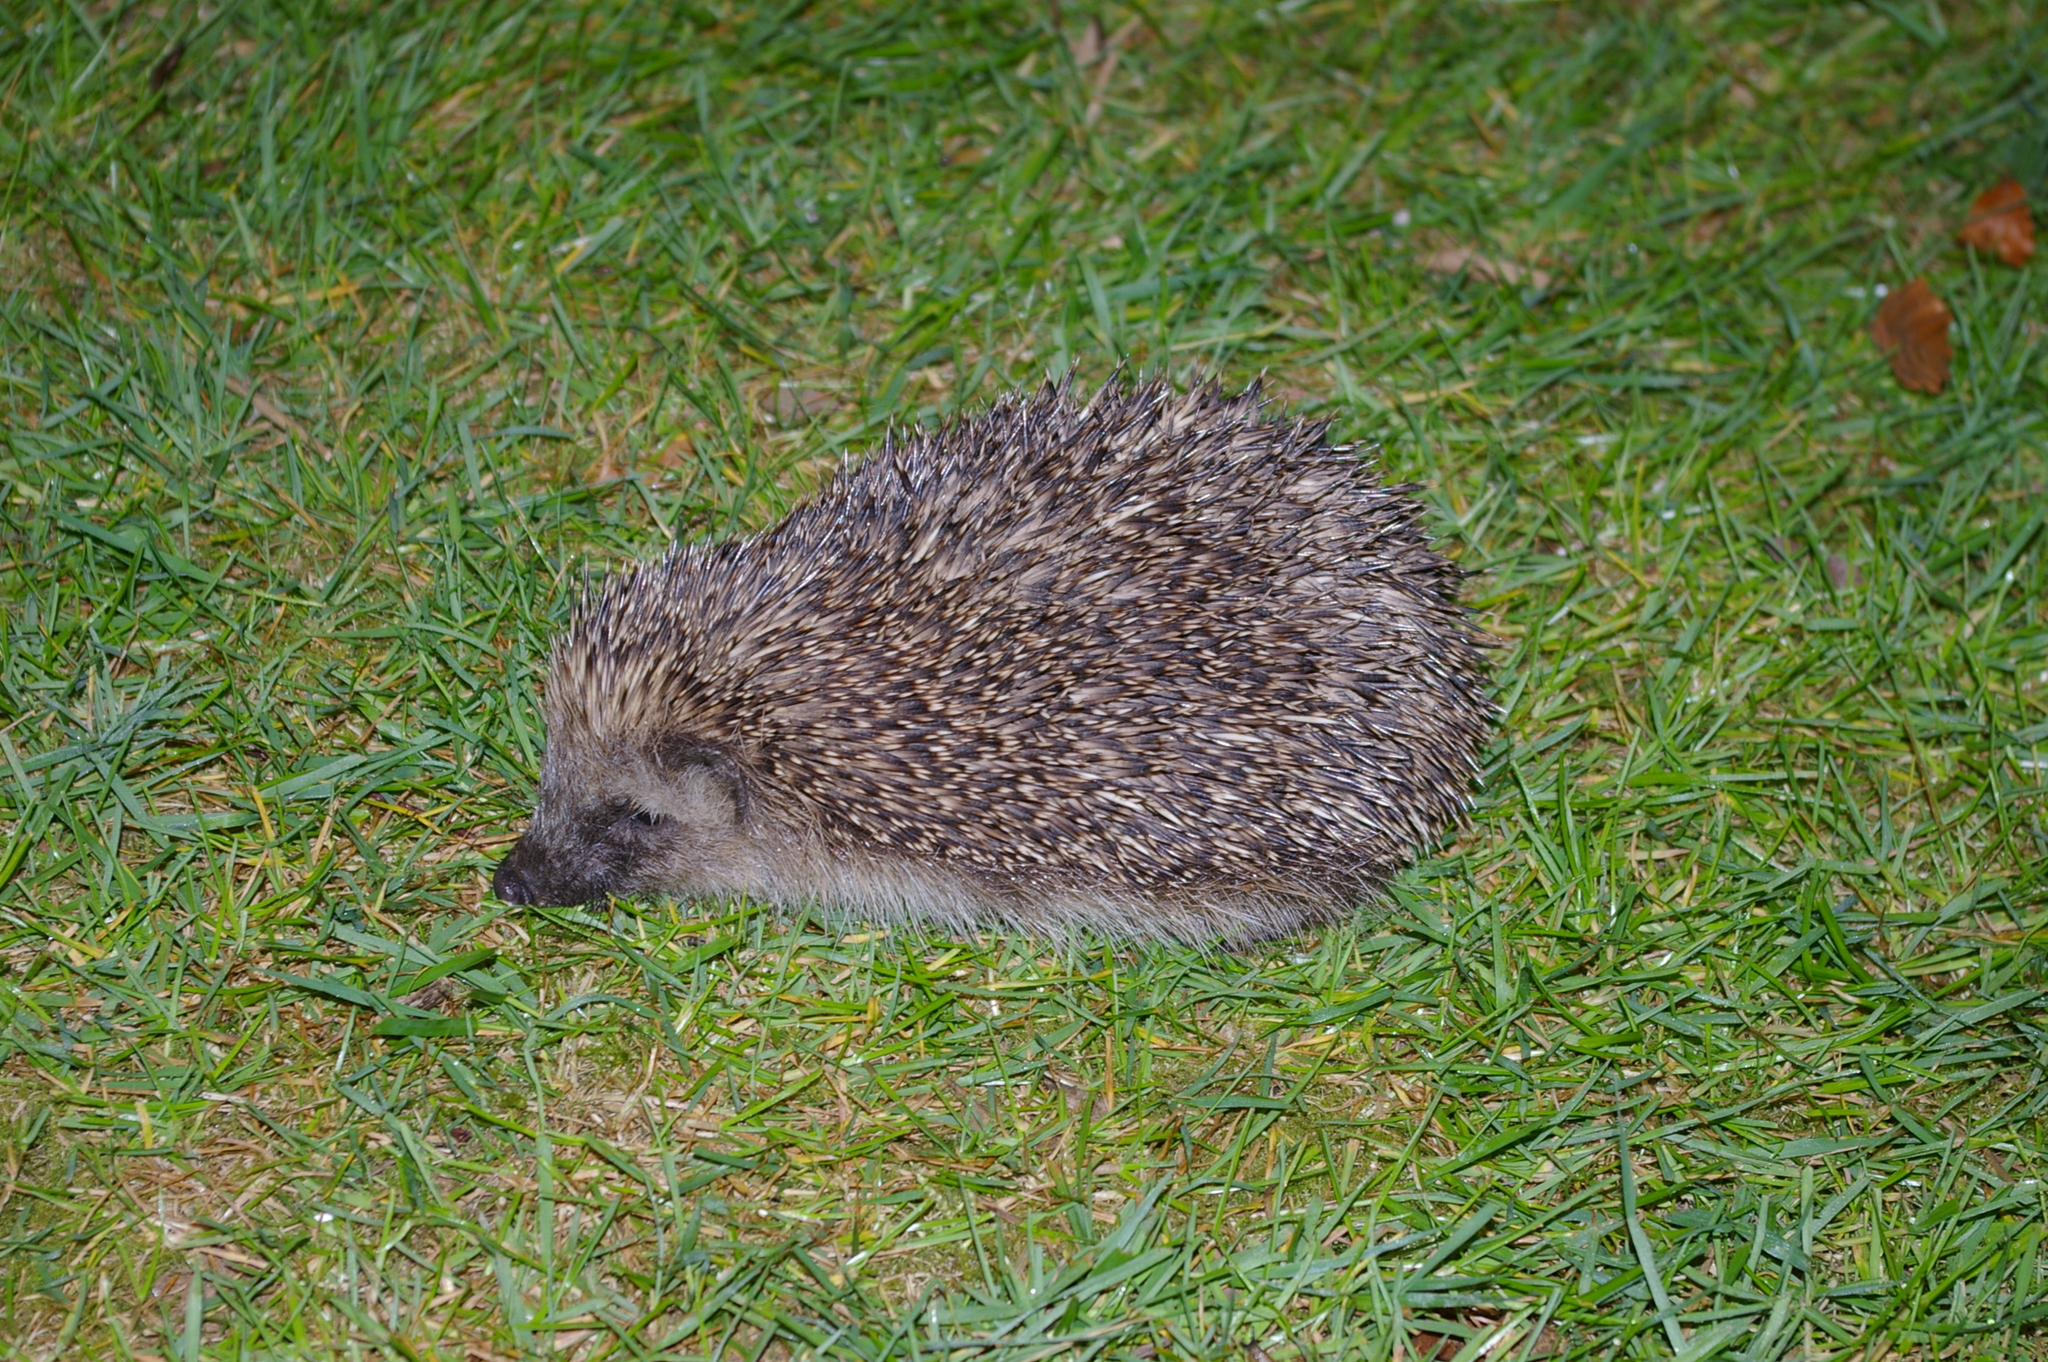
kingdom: Animalia
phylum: Chordata
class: Mammalia
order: Erinaceomorpha
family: Erinaceidae
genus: Erinaceus
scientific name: Erinaceus europaeus
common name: West european hedgehog
